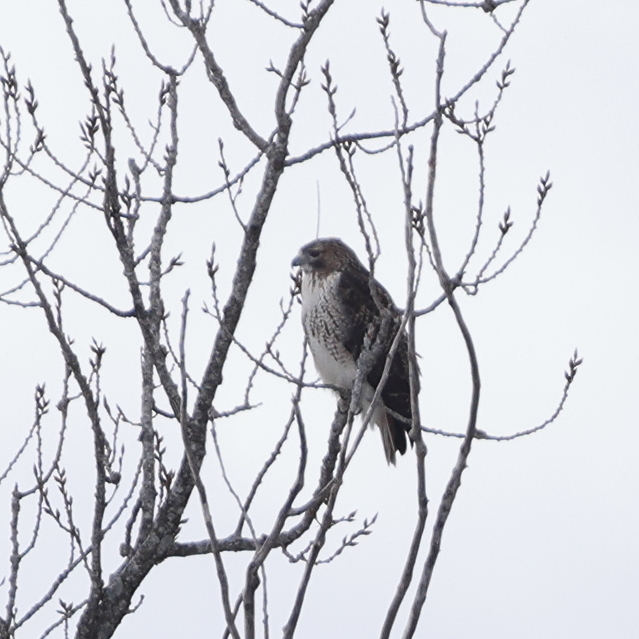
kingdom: Animalia
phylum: Chordata
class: Aves
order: Accipitriformes
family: Accipitridae
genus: Buteo
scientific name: Buteo jamaicensis
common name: Red-tailed hawk
